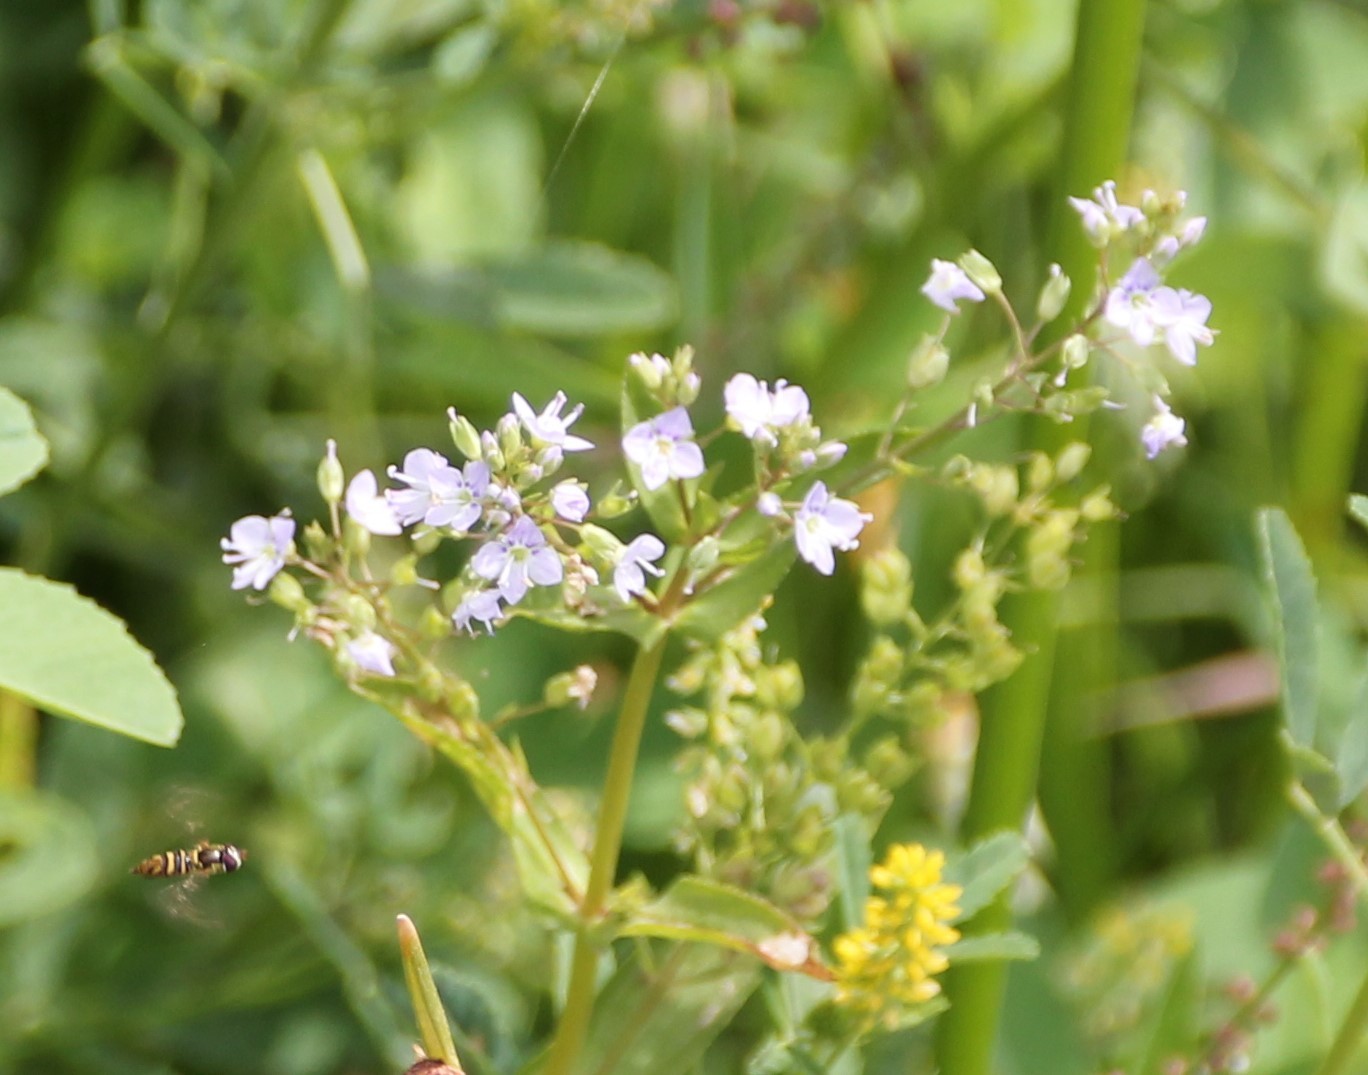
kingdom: Plantae
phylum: Tracheophyta
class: Magnoliopsida
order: Lamiales
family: Plantaginaceae
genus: Veronica
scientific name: Veronica anagallis-aquatica
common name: Water speedwell
